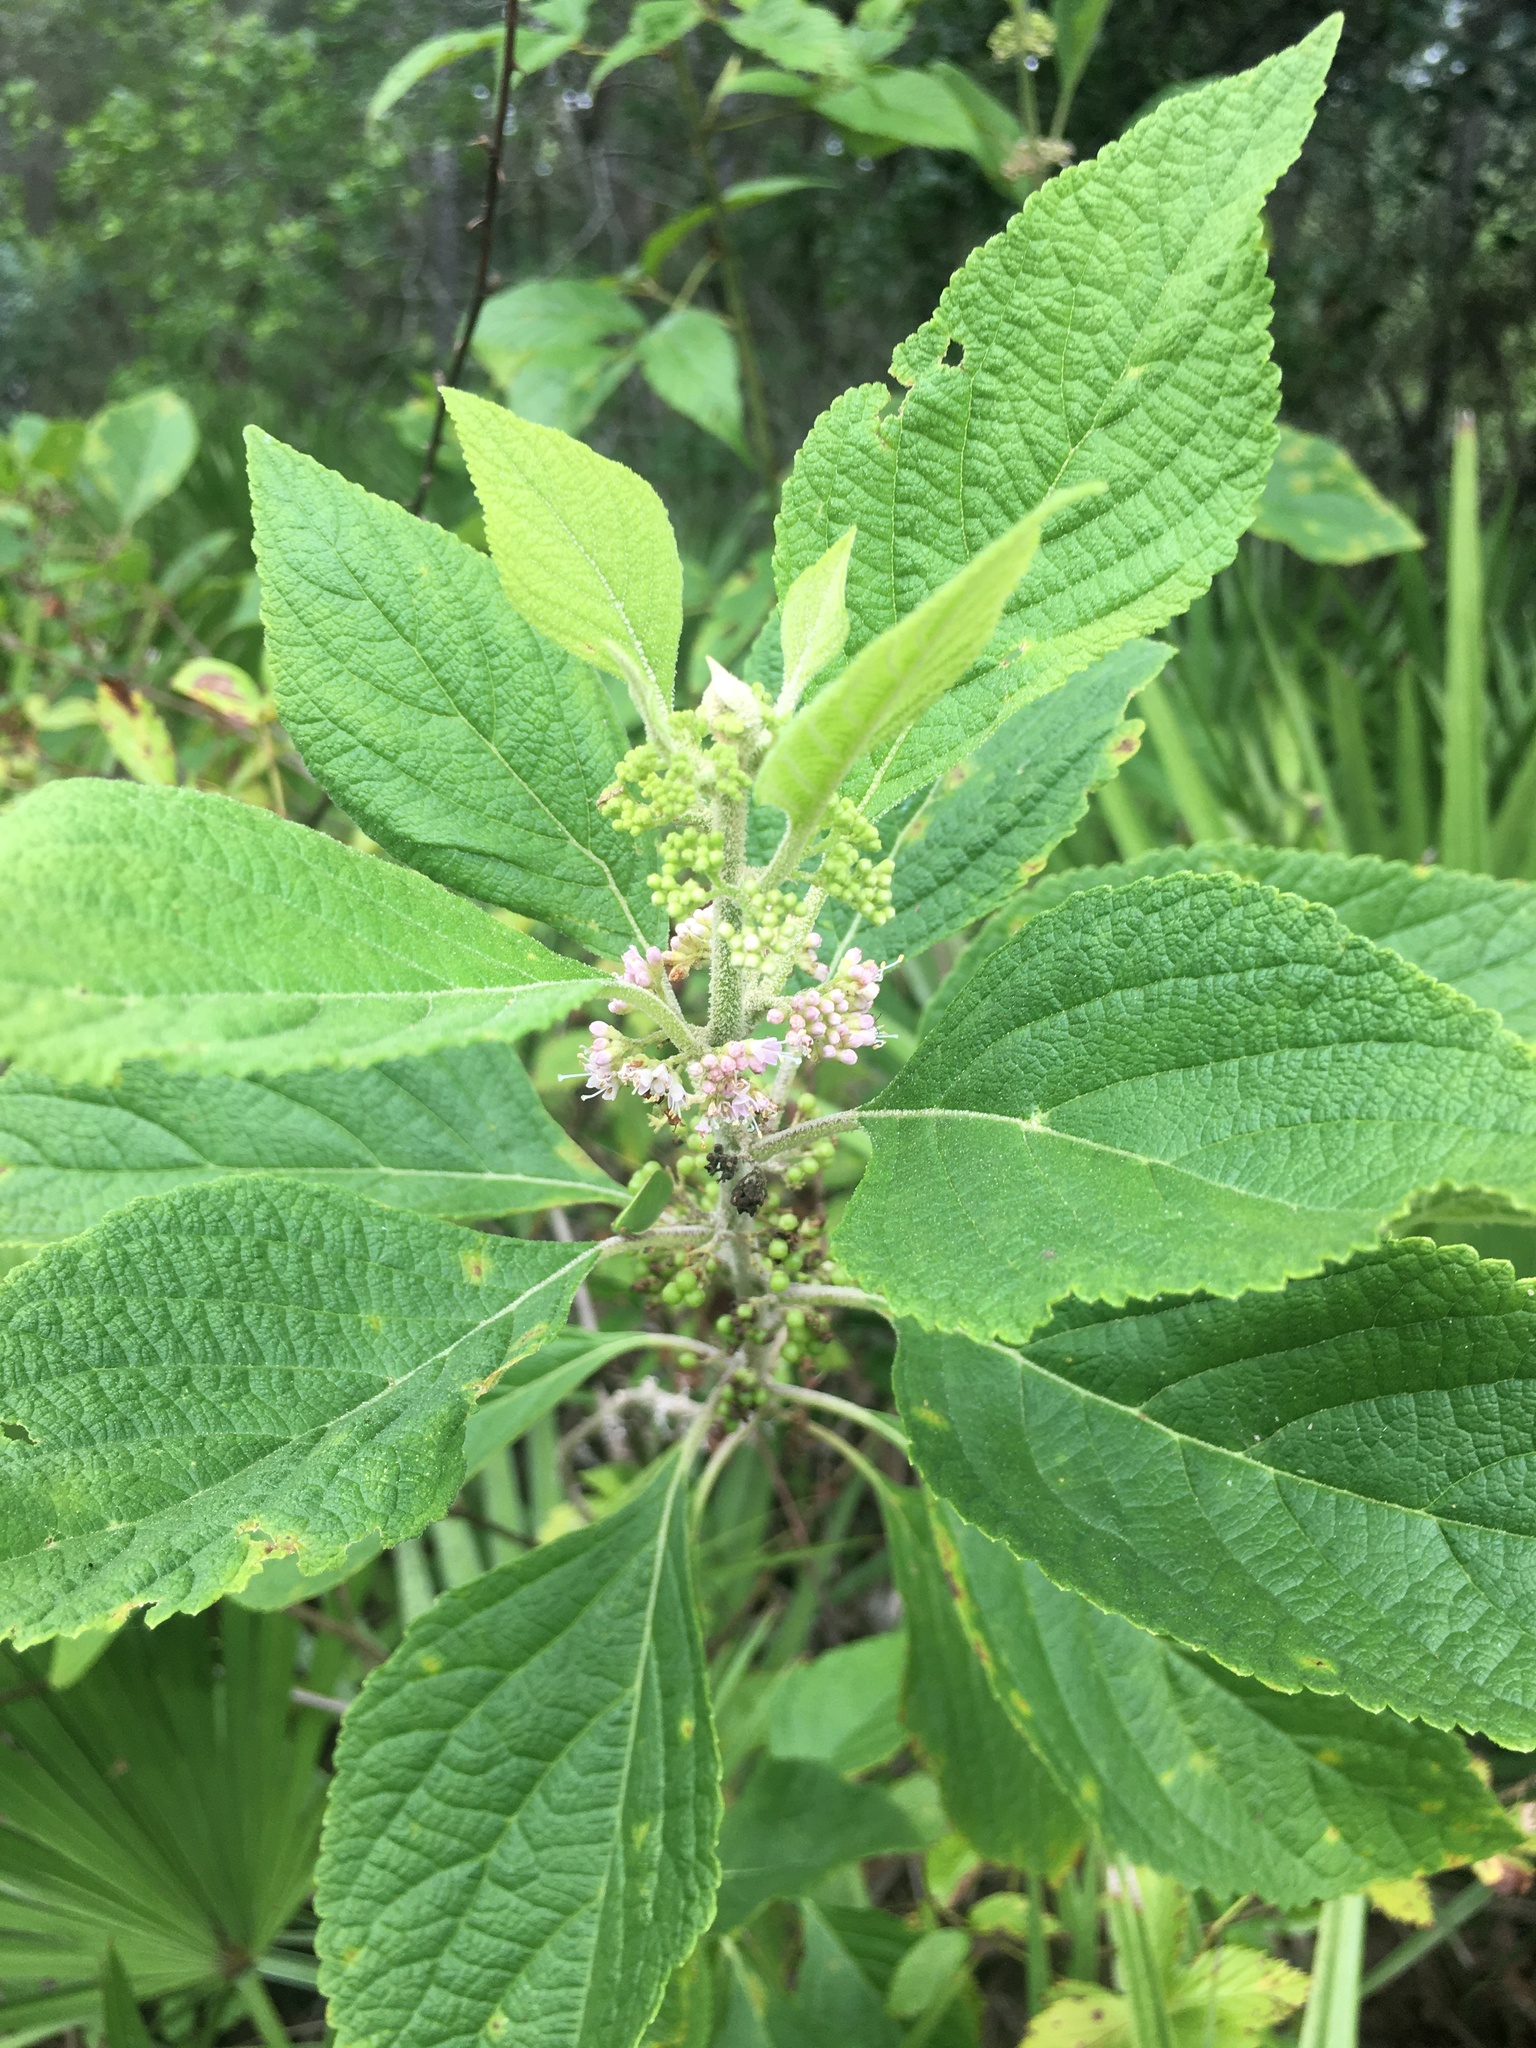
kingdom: Plantae
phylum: Tracheophyta
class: Magnoliopsida
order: Lamiales
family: Lamiaceae
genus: Callicarpa
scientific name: Callicarpa americana
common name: American beautyberry
